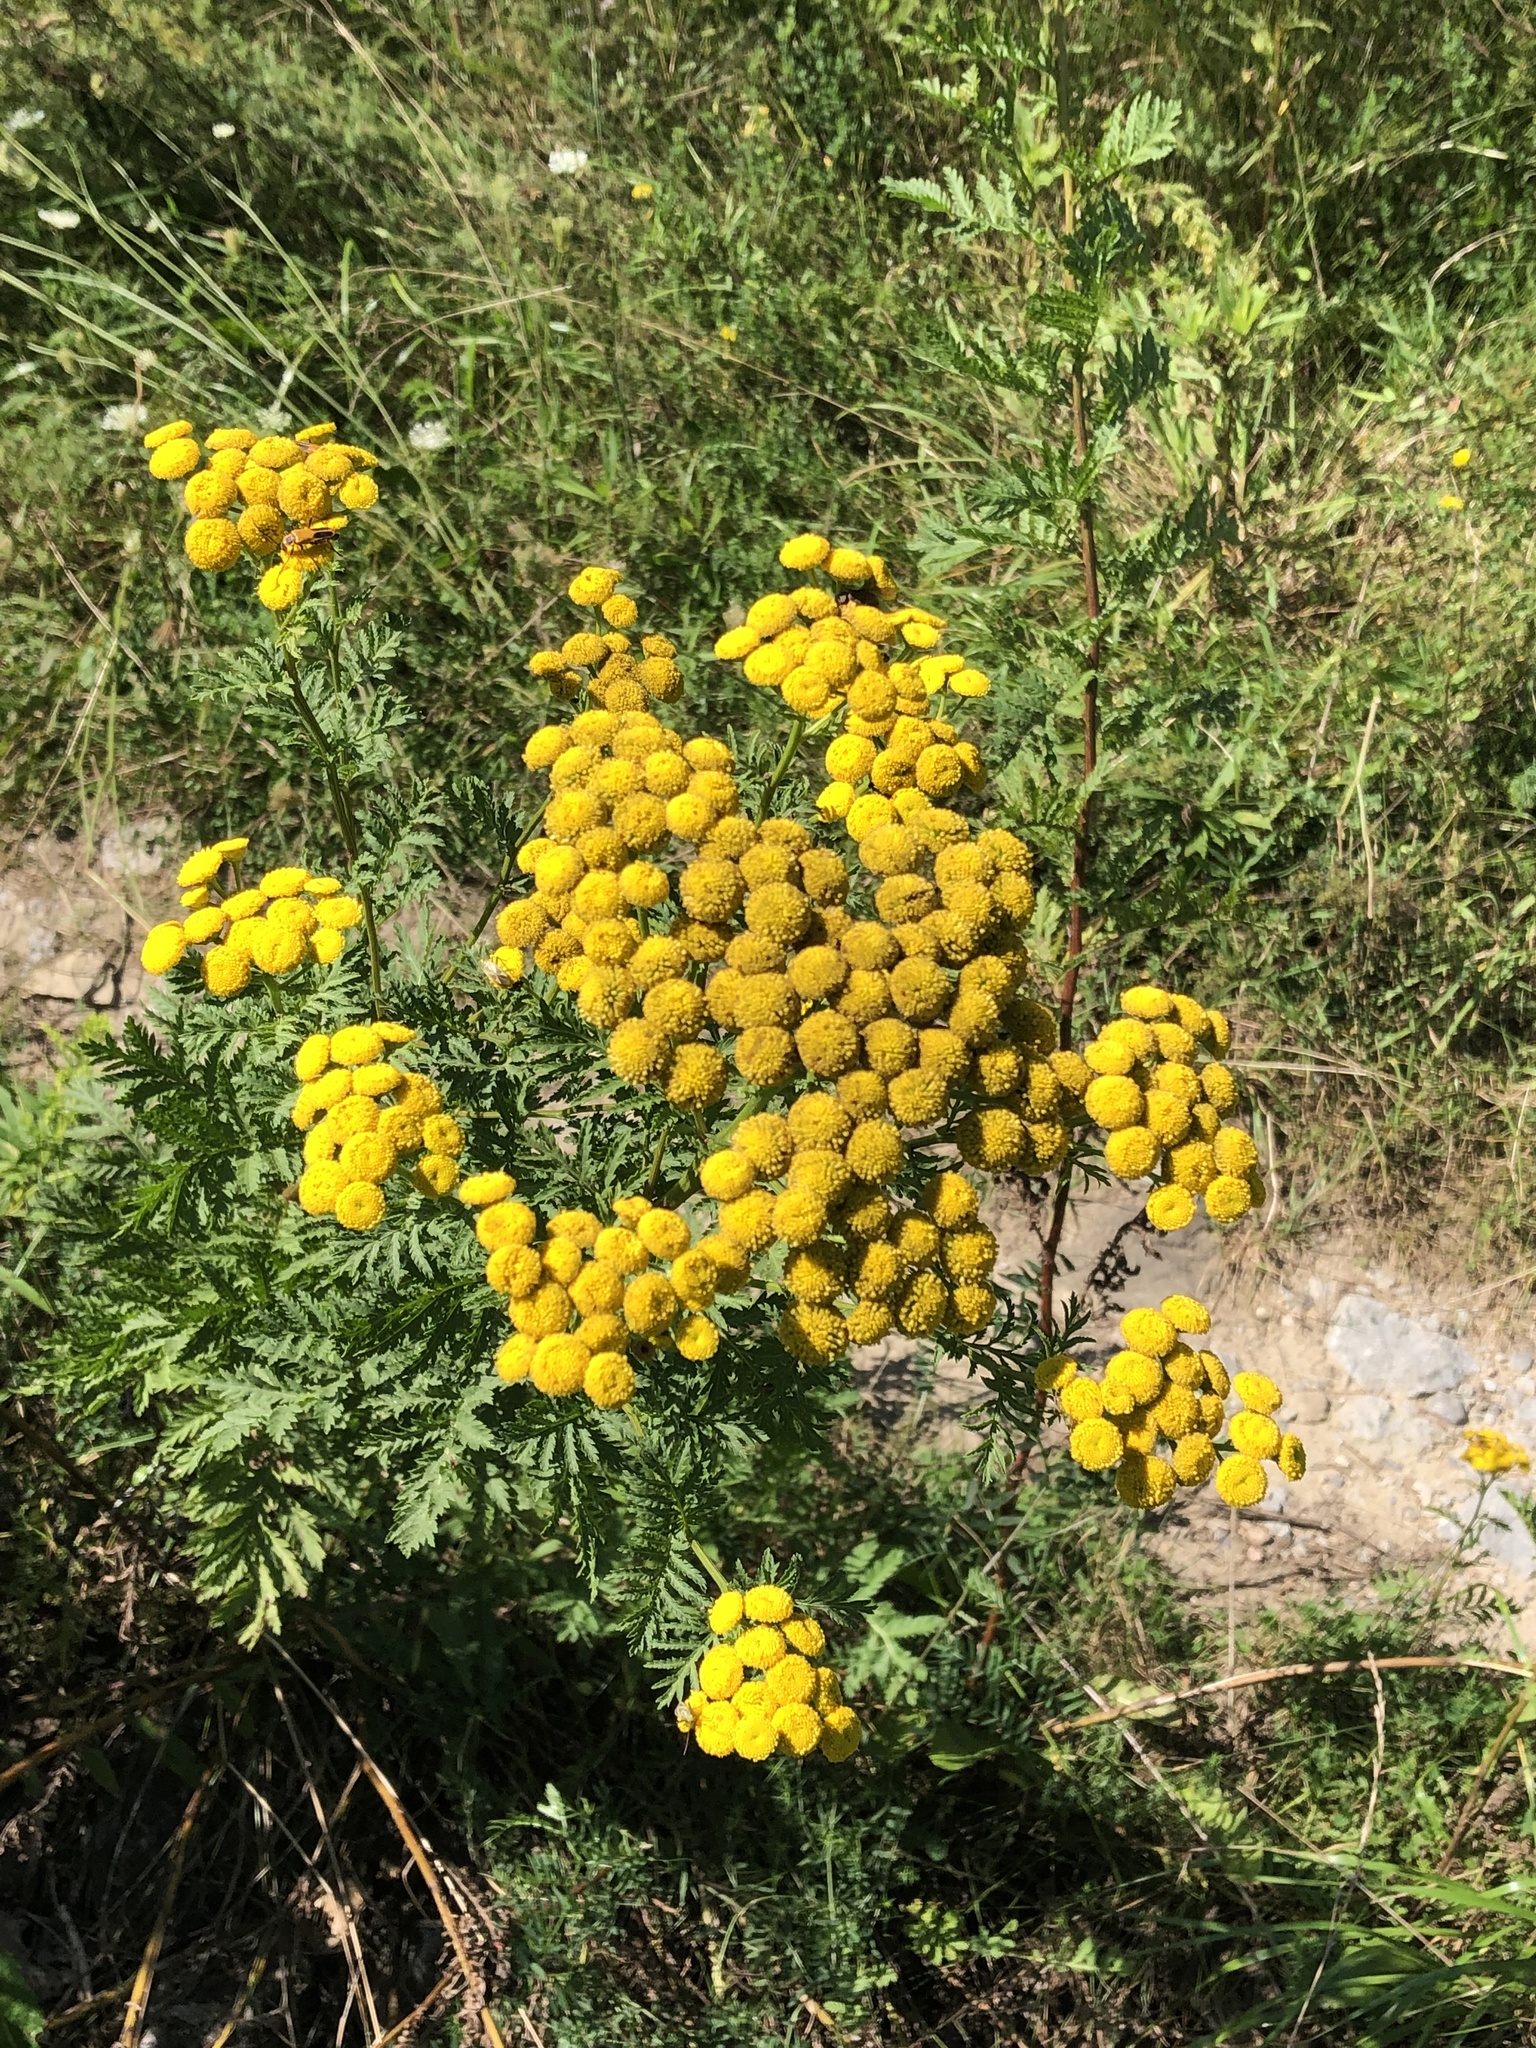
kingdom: Plantae
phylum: Tracheophyta
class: Magnoliopsida
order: Asterales
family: Asteraceae
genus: Tanacetum
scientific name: Tanacetum vulgare
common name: Common tansy
